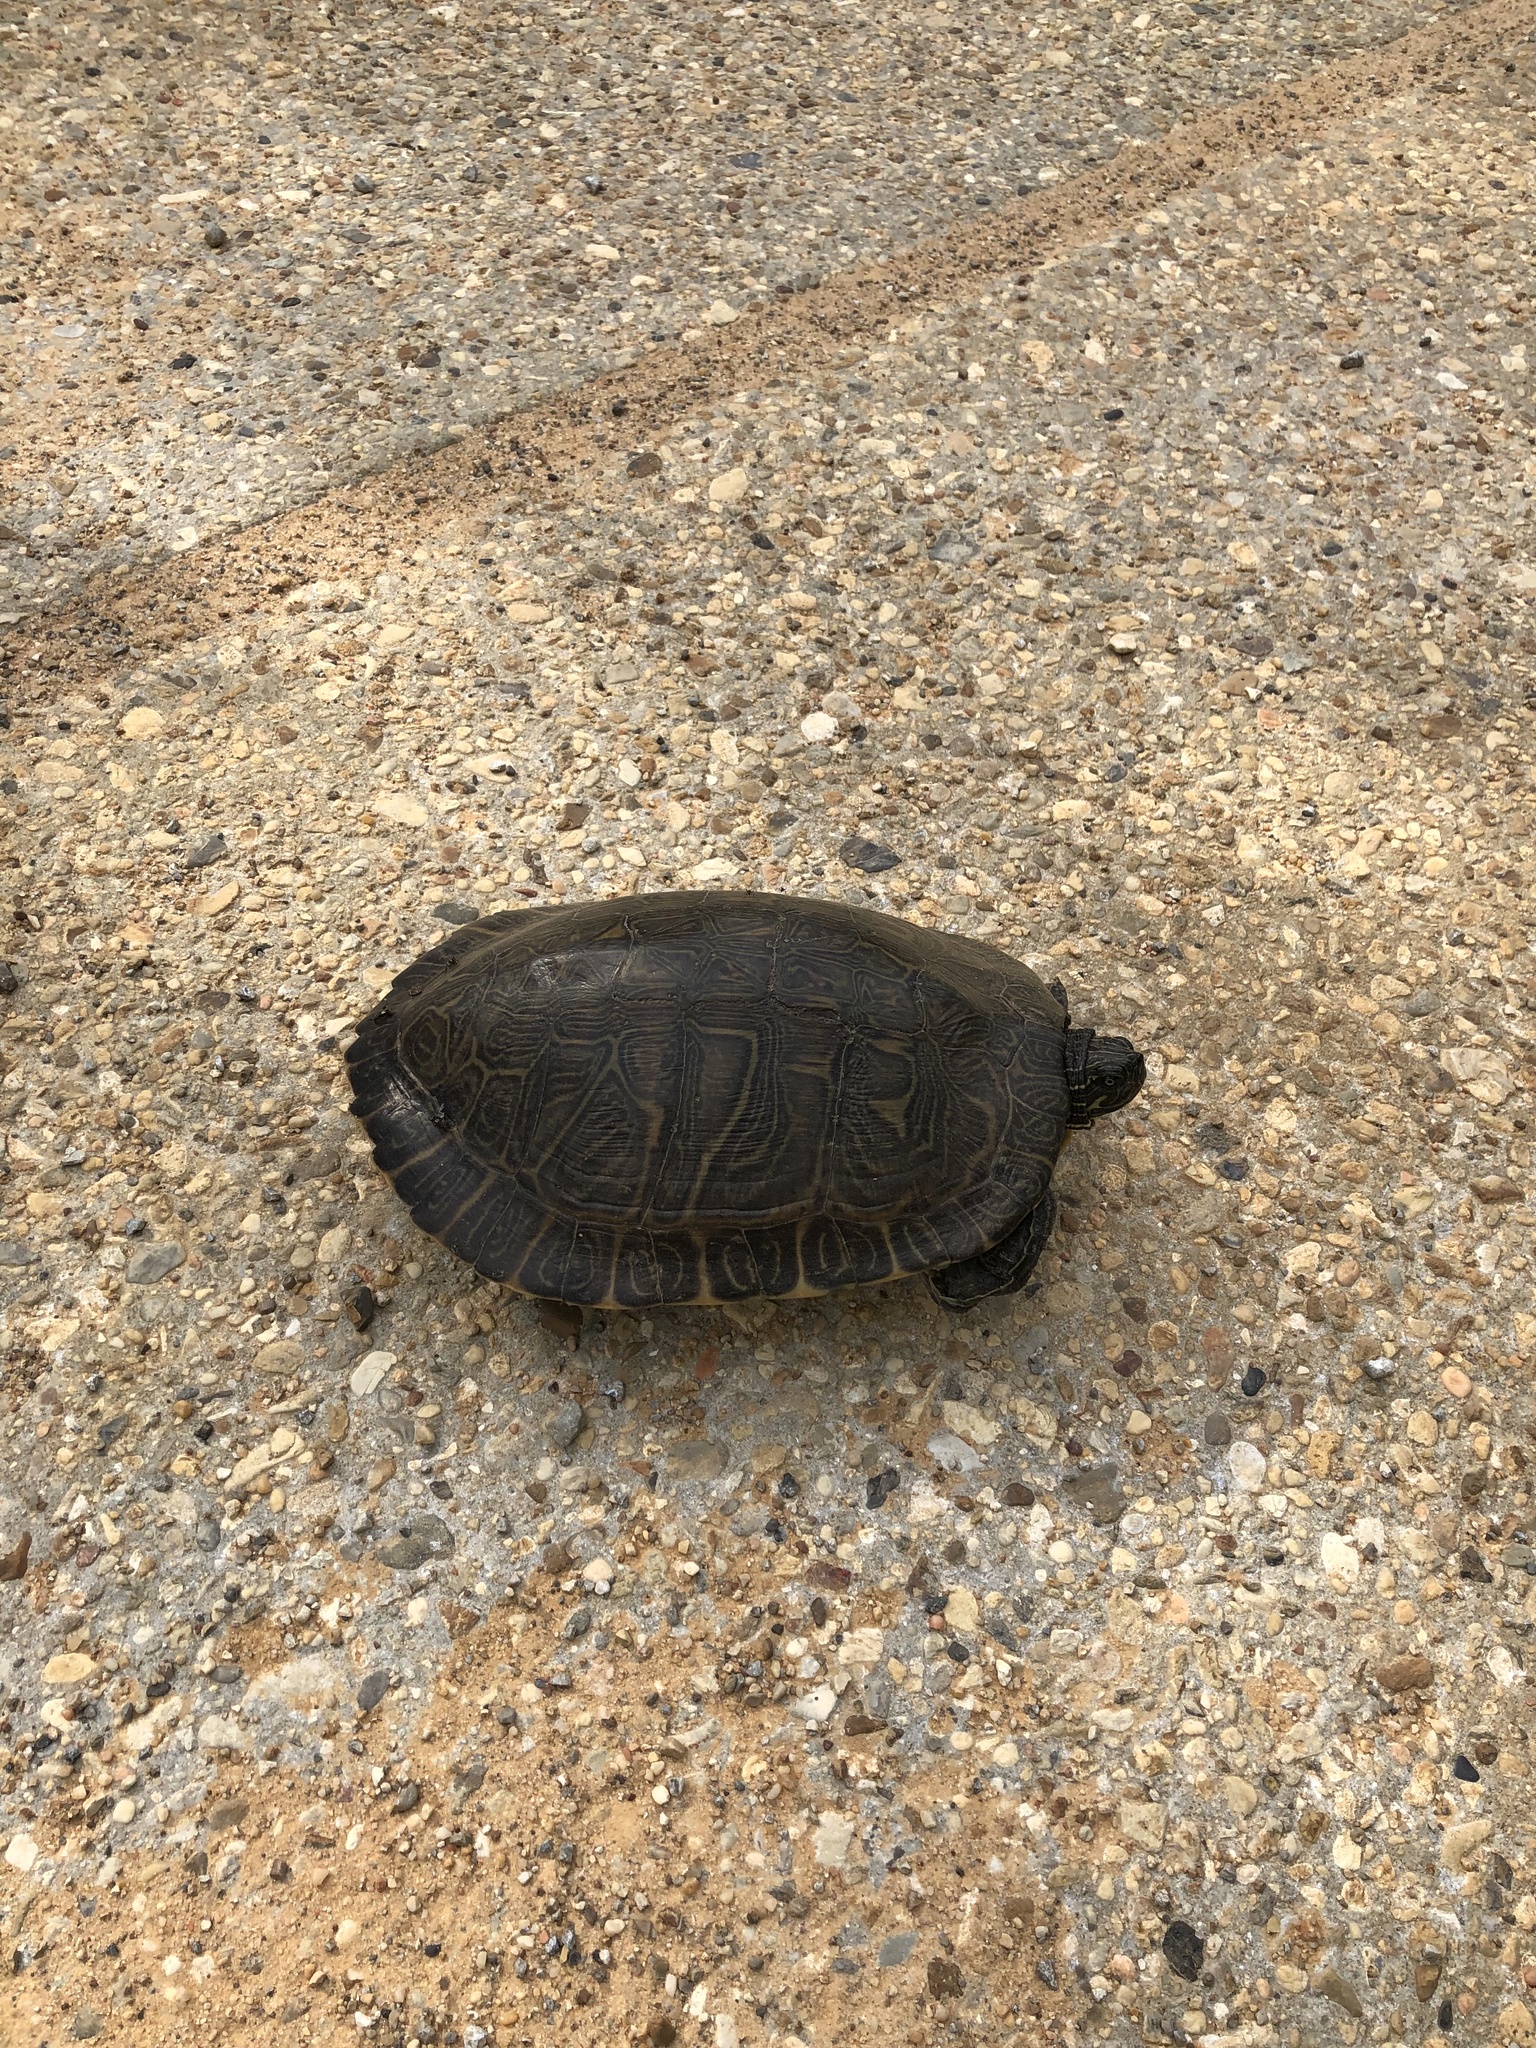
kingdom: Animalia
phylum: Chordata
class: Testudines
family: Emydidae
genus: Pseudemys
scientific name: Pseudemys concinna
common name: Eastern river cooter
